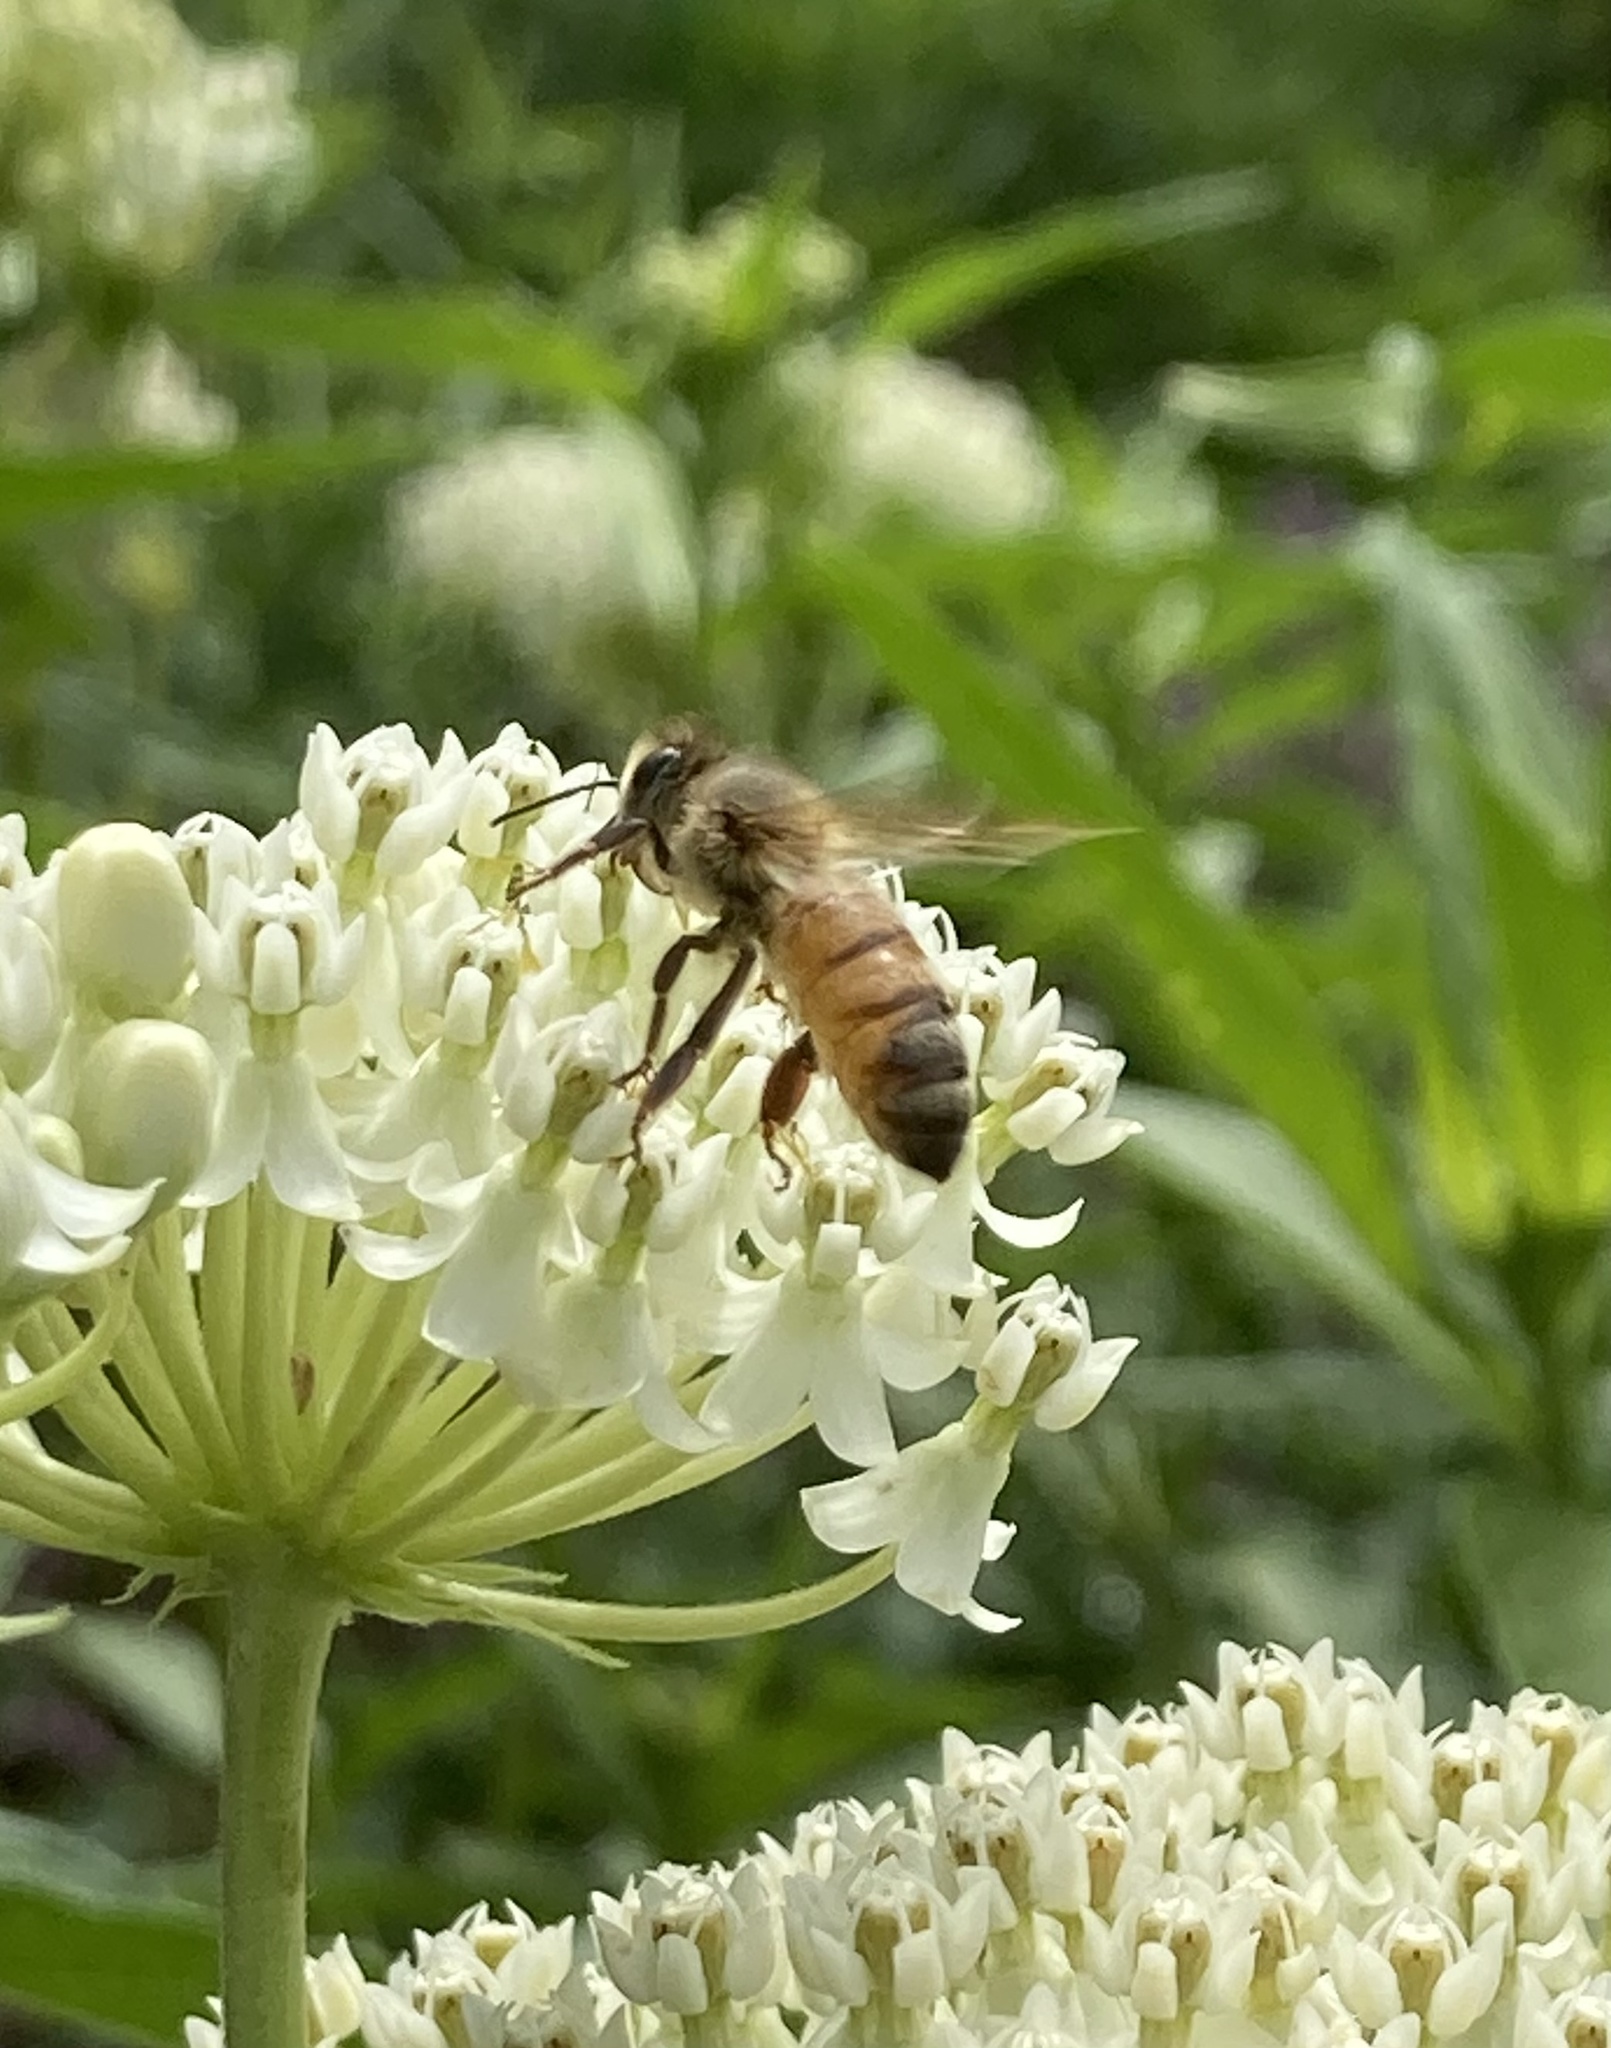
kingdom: Animalia
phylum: Arthropoda
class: Insecta
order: Hymenoptera
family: Apidae
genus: Apis
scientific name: Apis mellifera
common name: Honey bee
